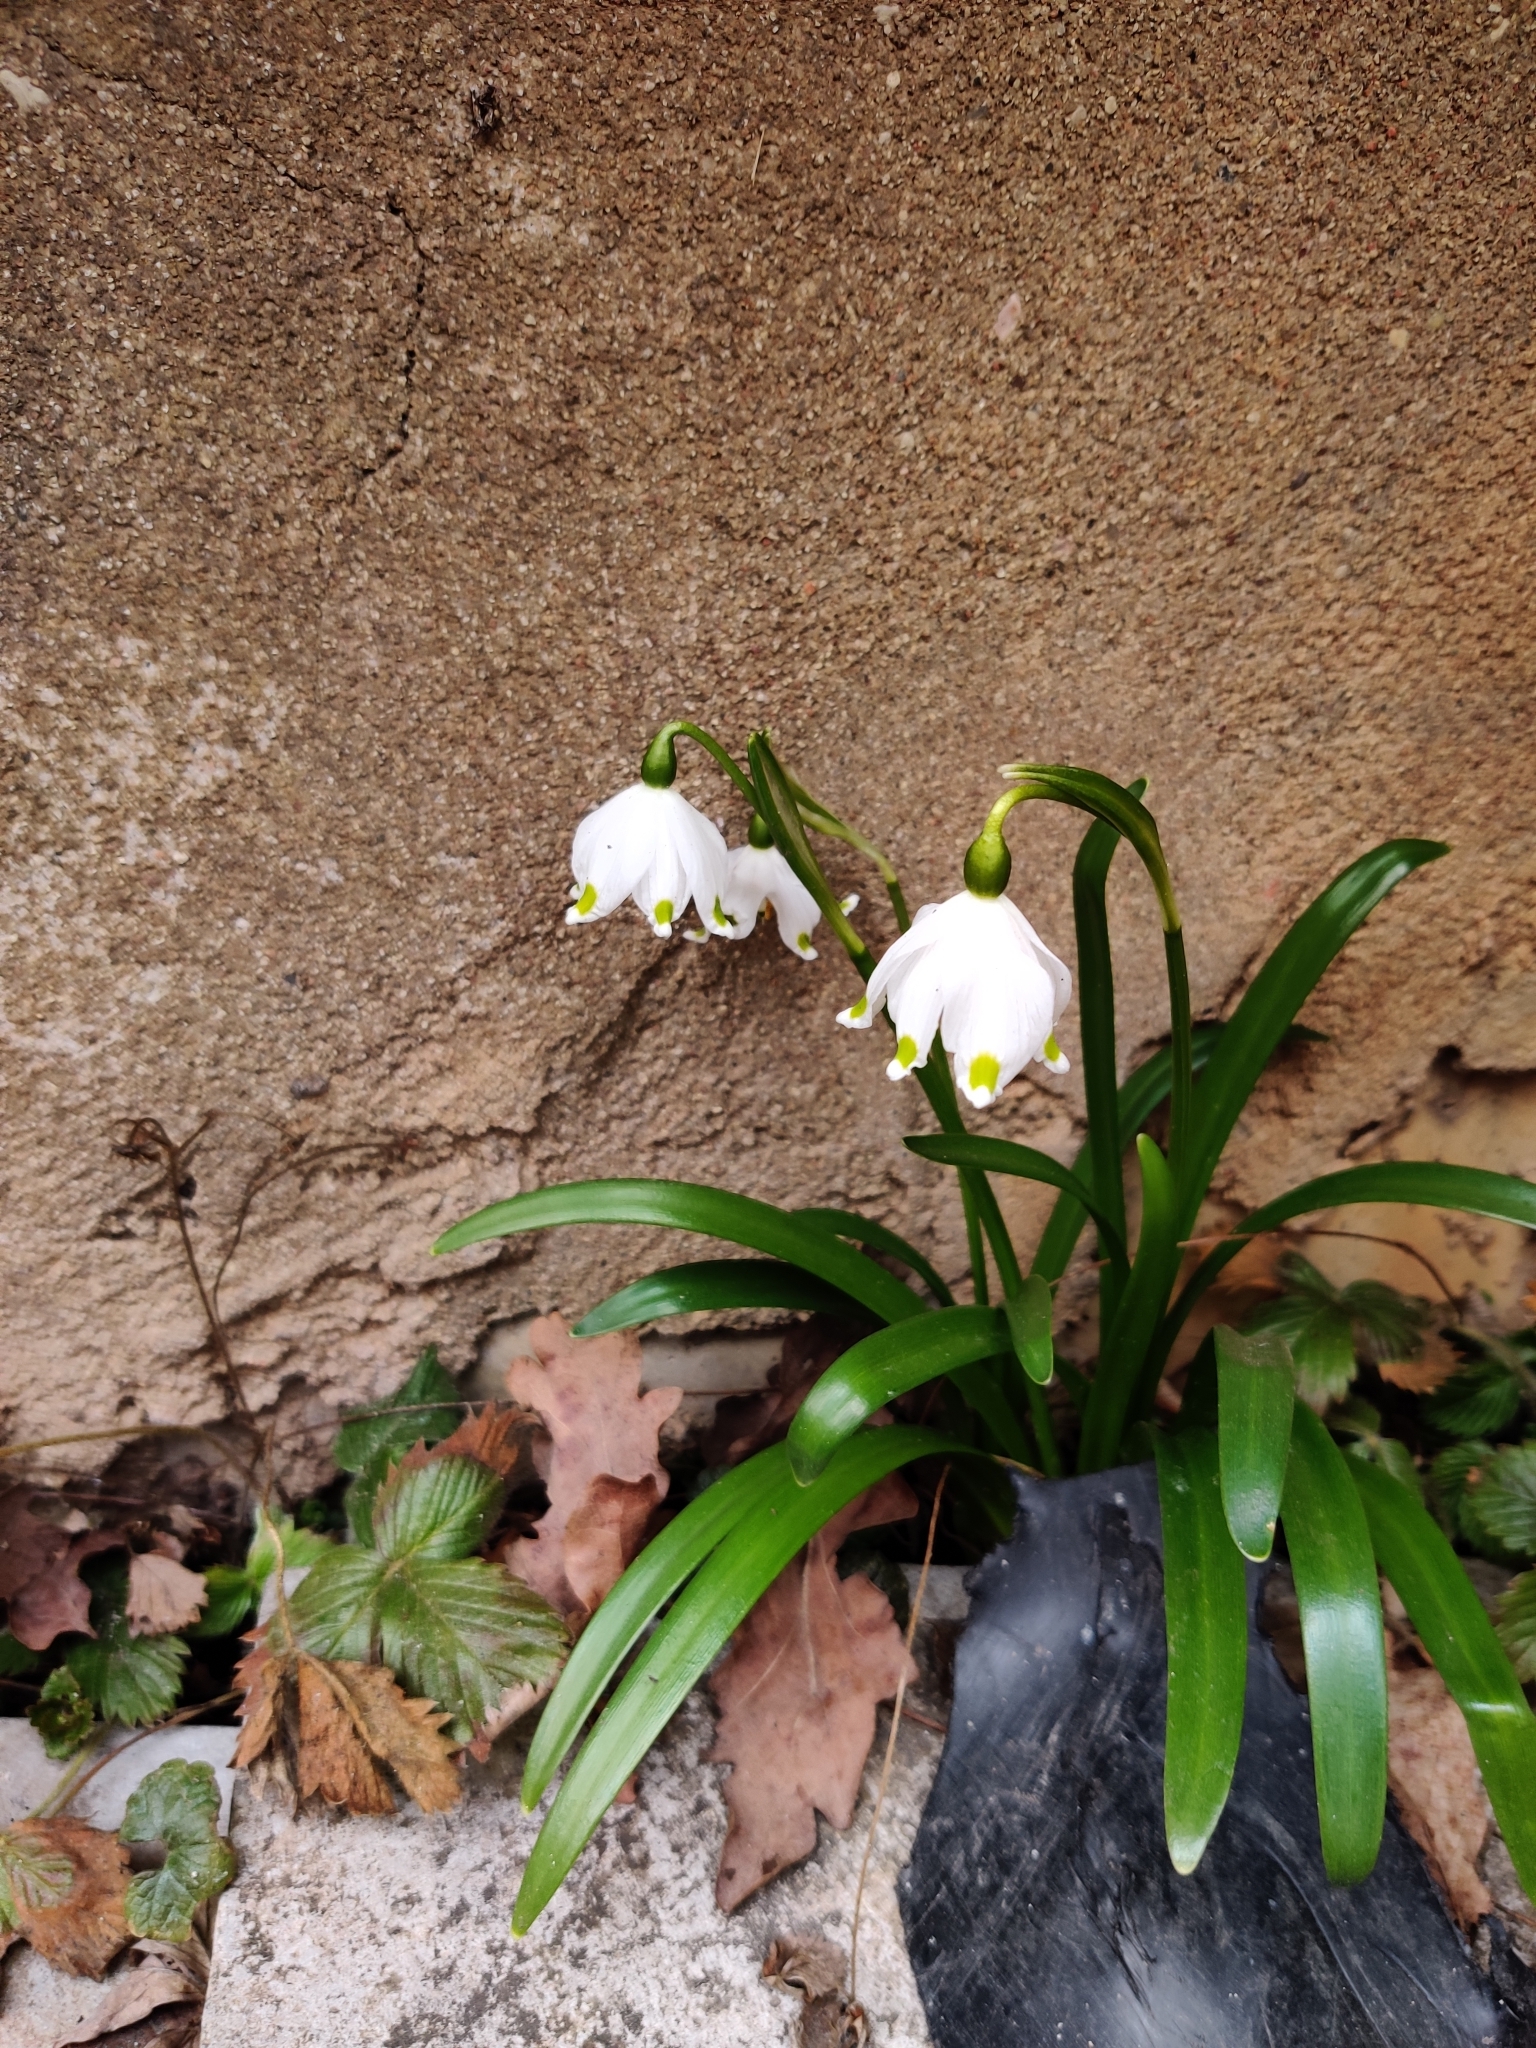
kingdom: Plantae
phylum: Tracheophyta
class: Liliopsida
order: Asparagales
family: Amaryllidaceae
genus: Leucojum
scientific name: Leucojum vernum
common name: Spring snowflake
